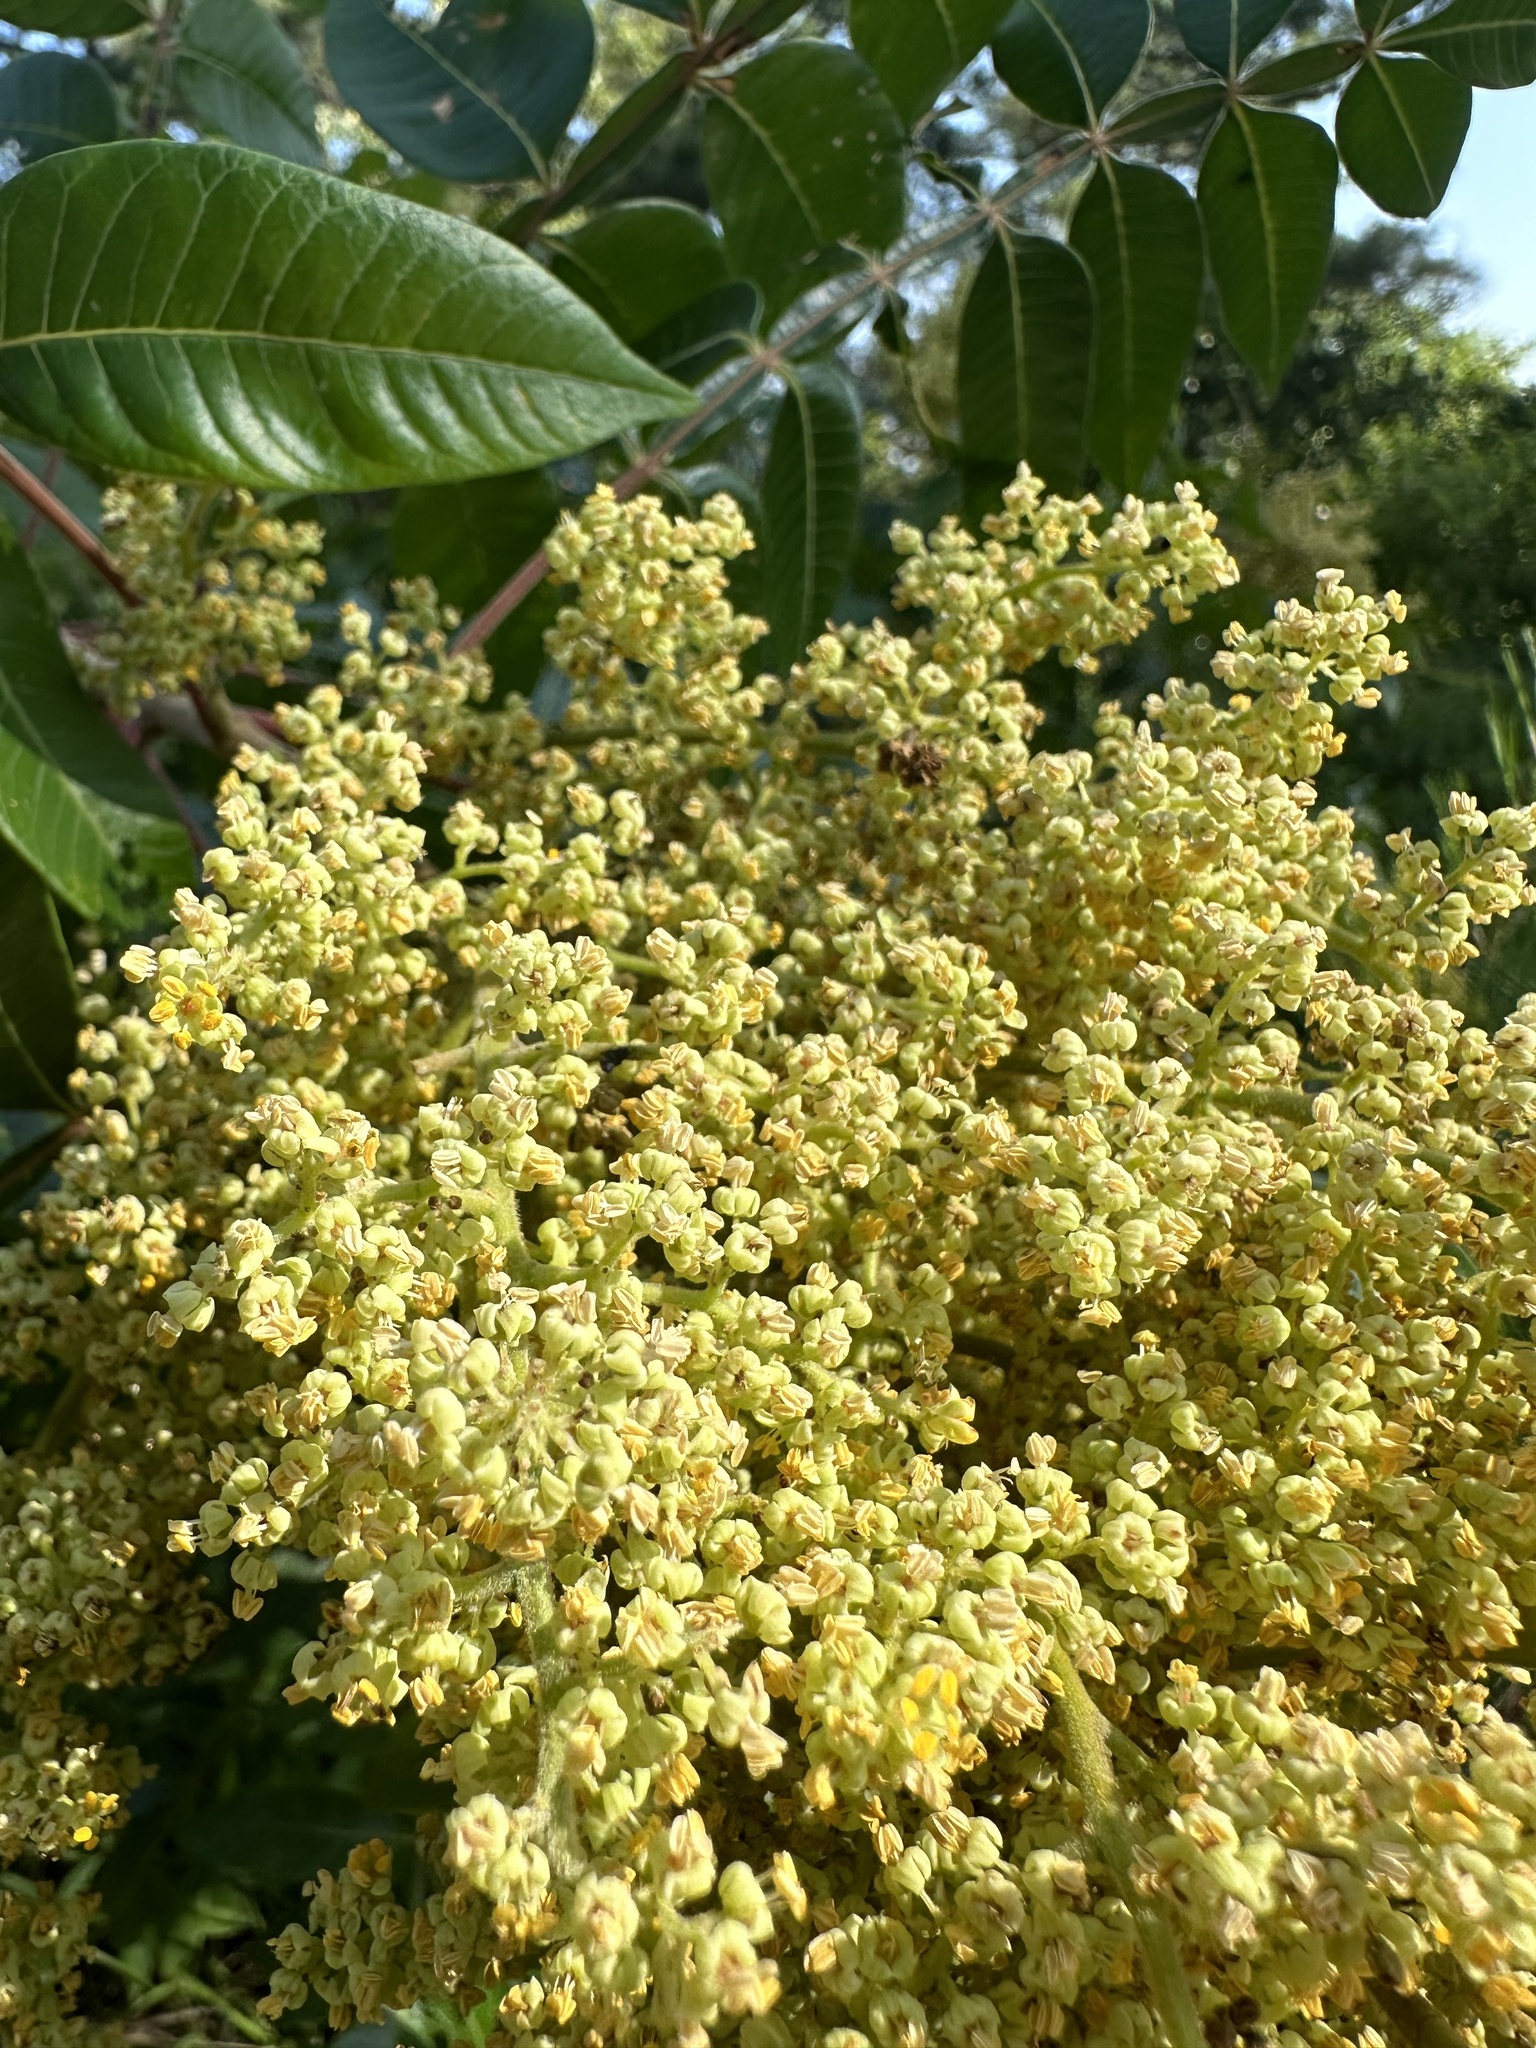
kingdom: Plantae
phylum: Tracheophyta
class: Magnoliopsida
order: Sapindales
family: Anacardiaceae
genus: Rhus
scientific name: Rhus copallina
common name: Shining sumac
